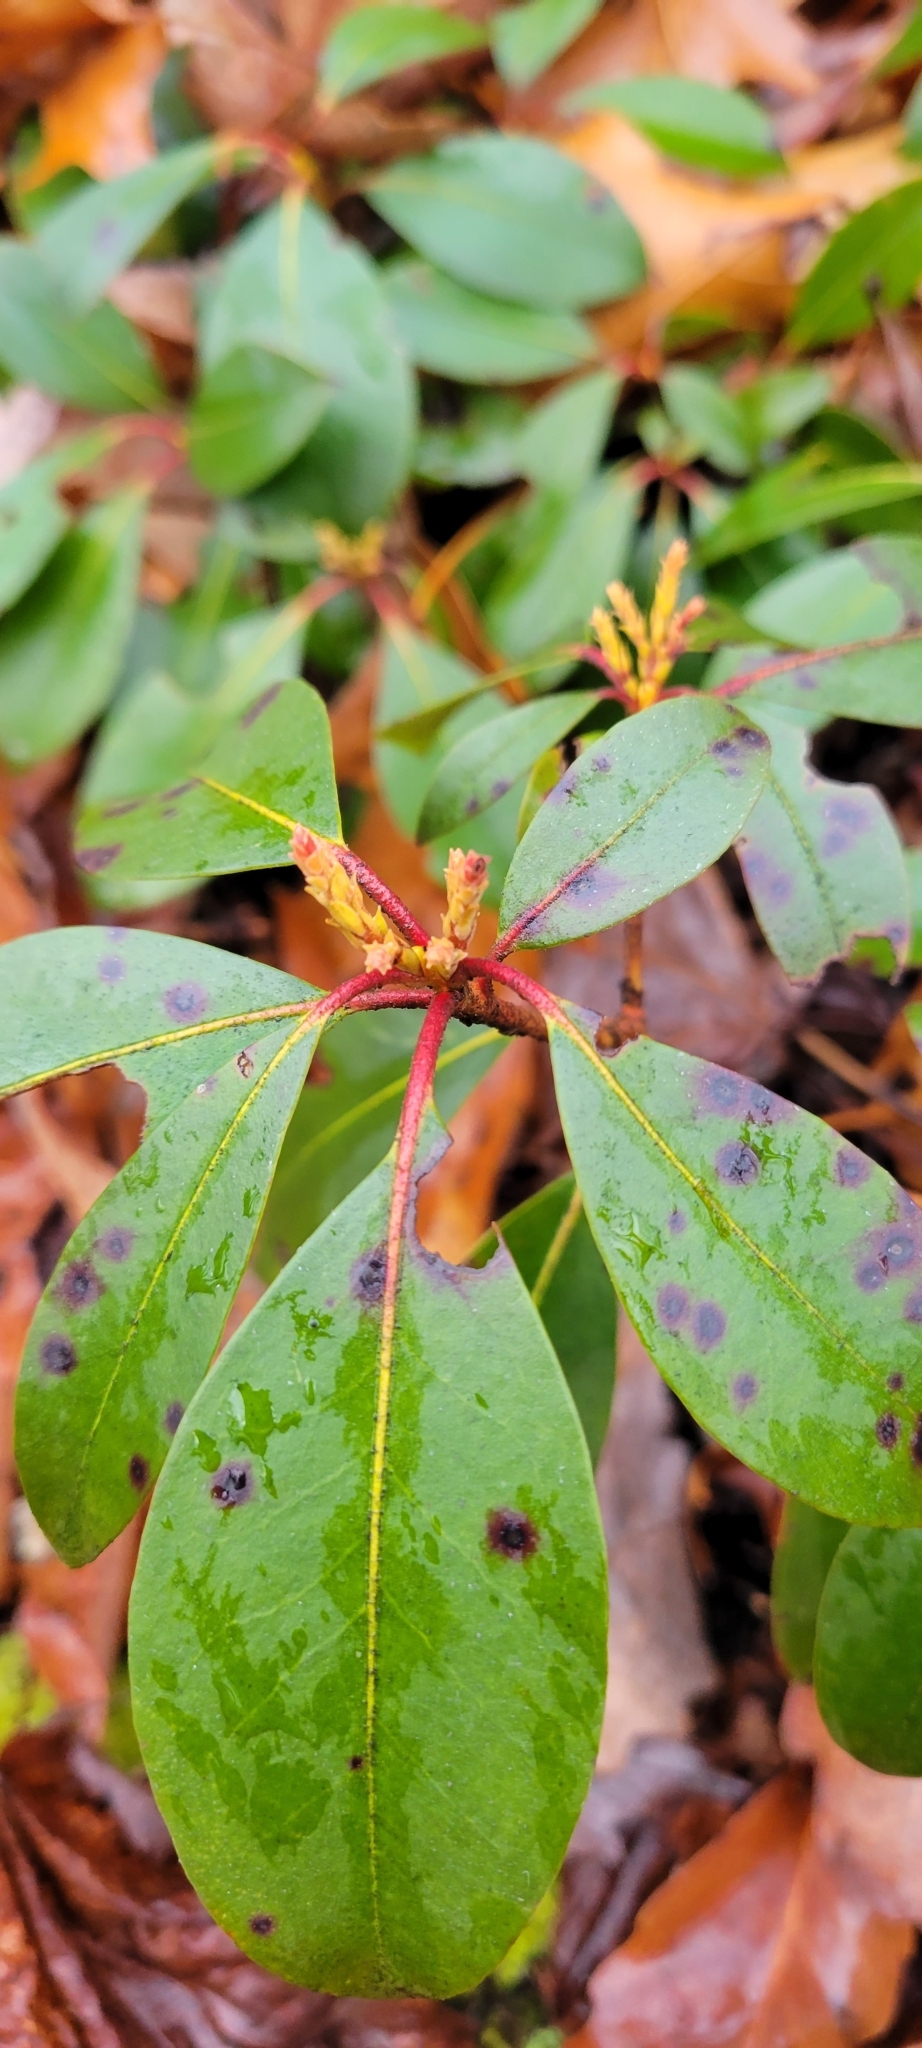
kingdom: Plantae
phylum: Tracheophyta
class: Magnoliopsida
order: Ericales
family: Ericaceae
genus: Kalmia
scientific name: Kalmia latifolia
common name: Mountain-laurel
